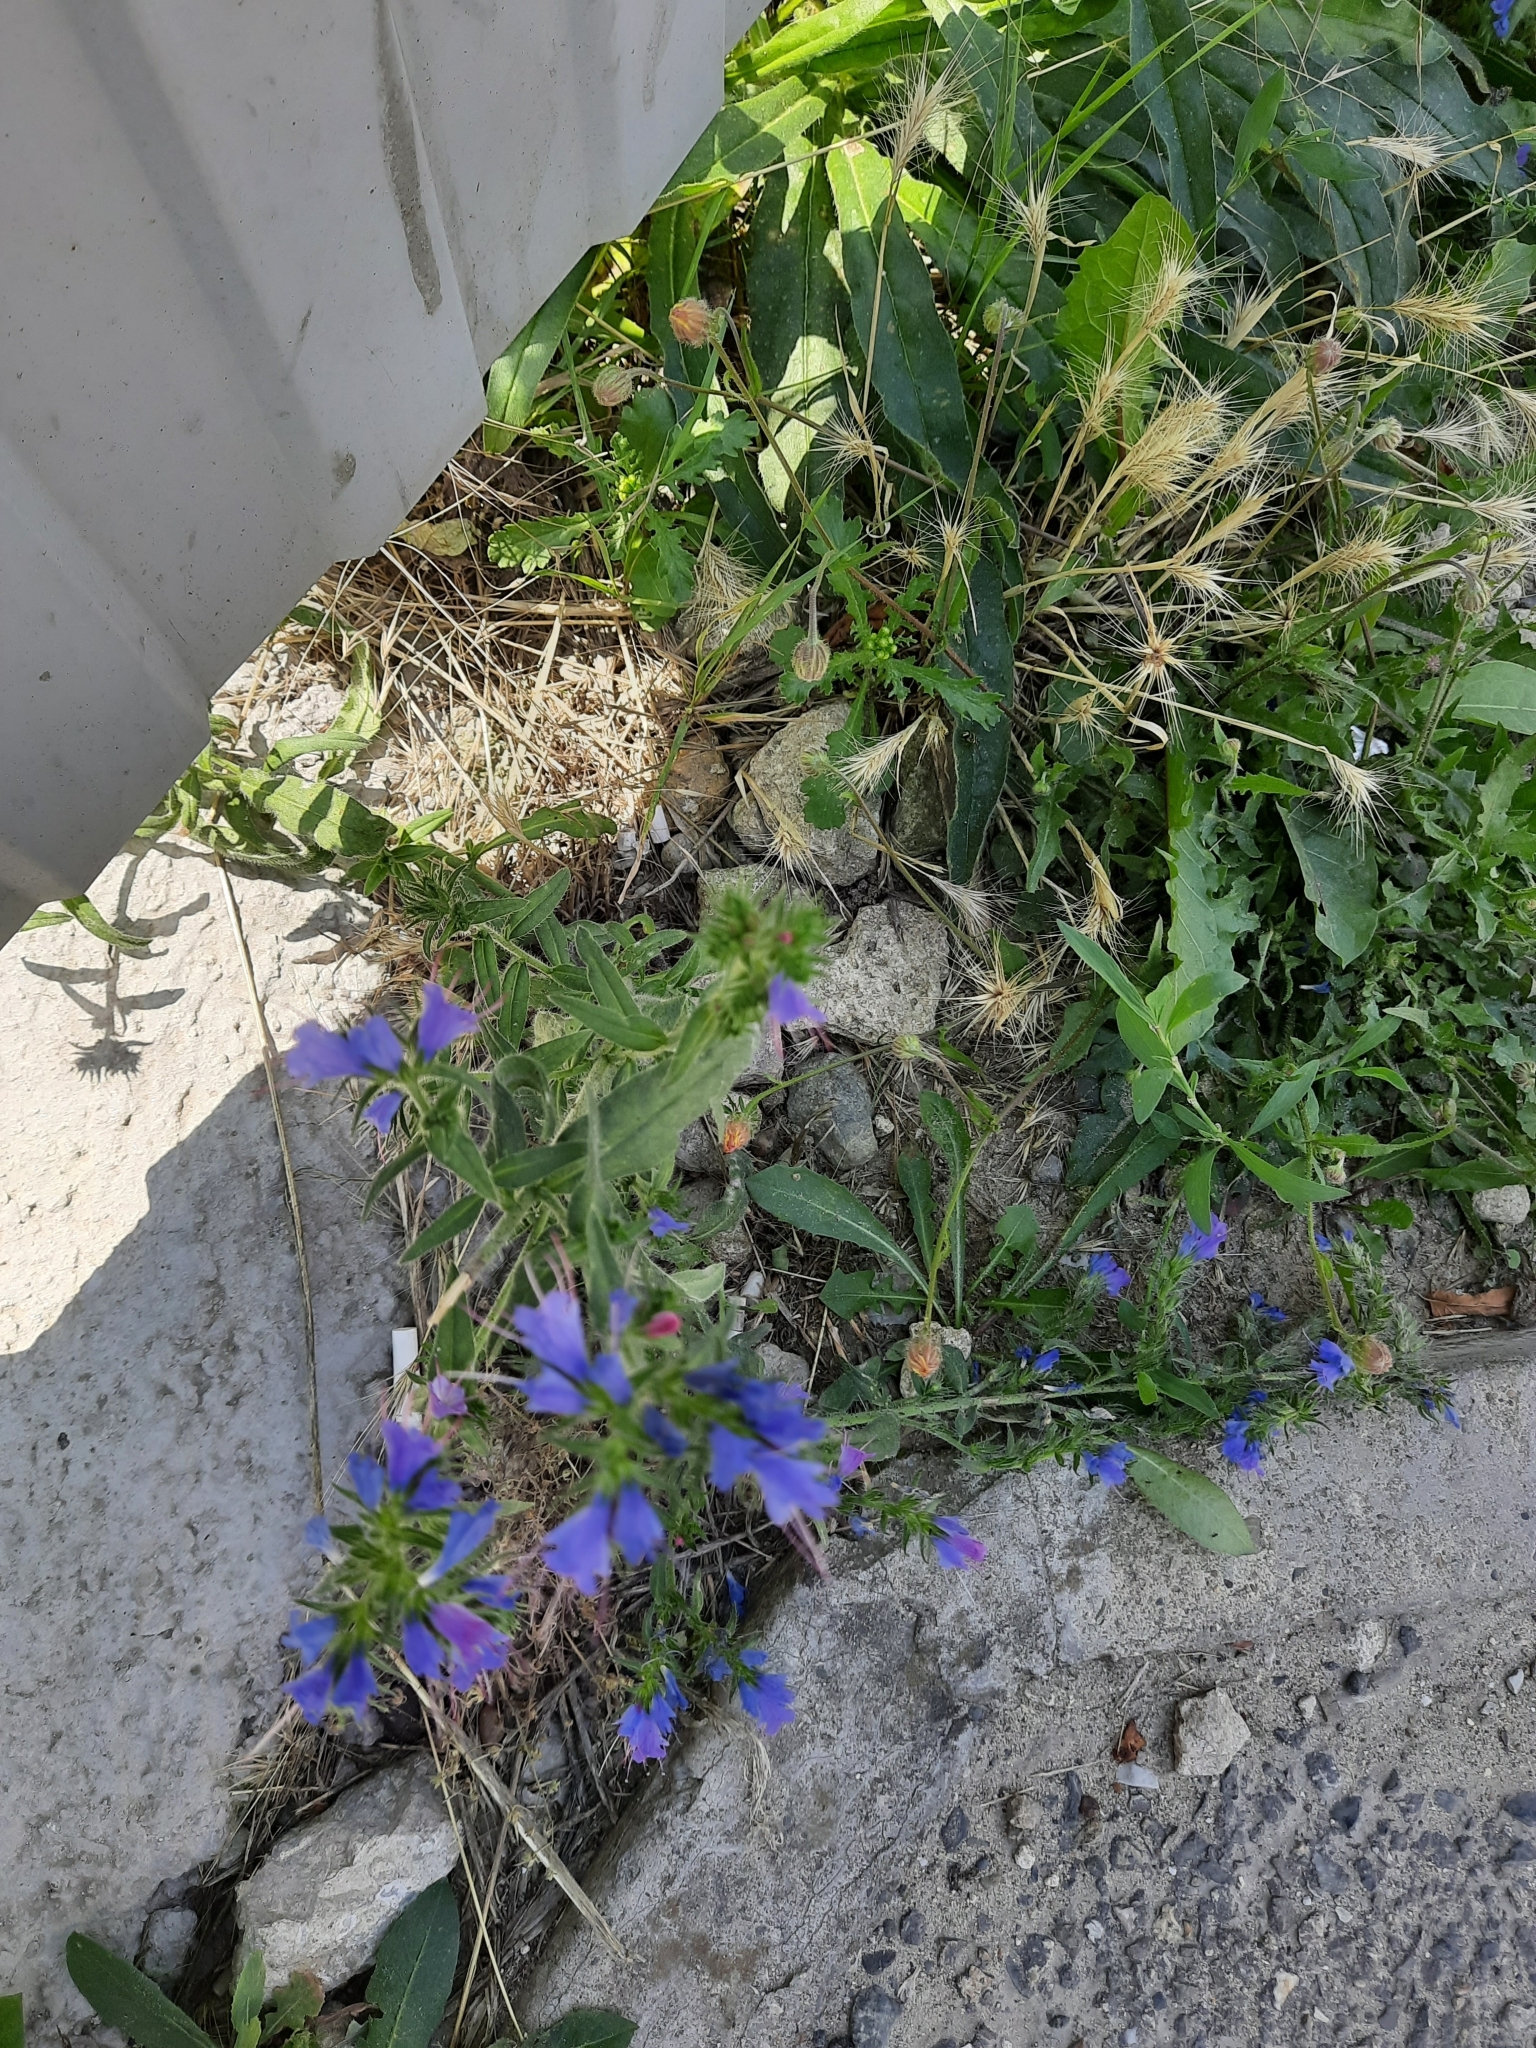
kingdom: Plantae
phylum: Tracheophyta
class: Magnoliopsida
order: Boraginales
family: Boraginaceae
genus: Echium
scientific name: Echium vulgare
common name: Common viper's bugloss
